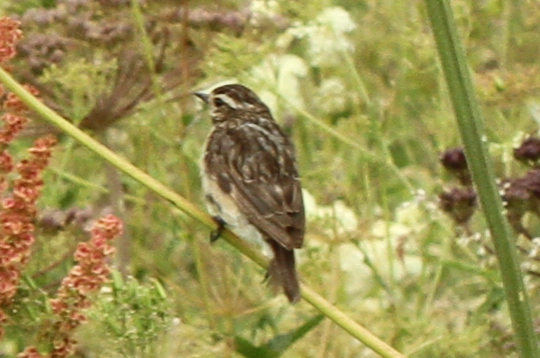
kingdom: Animalia
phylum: Chordata
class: Aves
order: Passeriformes
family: Muscicapidae
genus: Saxicola
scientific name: Saxicola rubetra
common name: Whinchat
